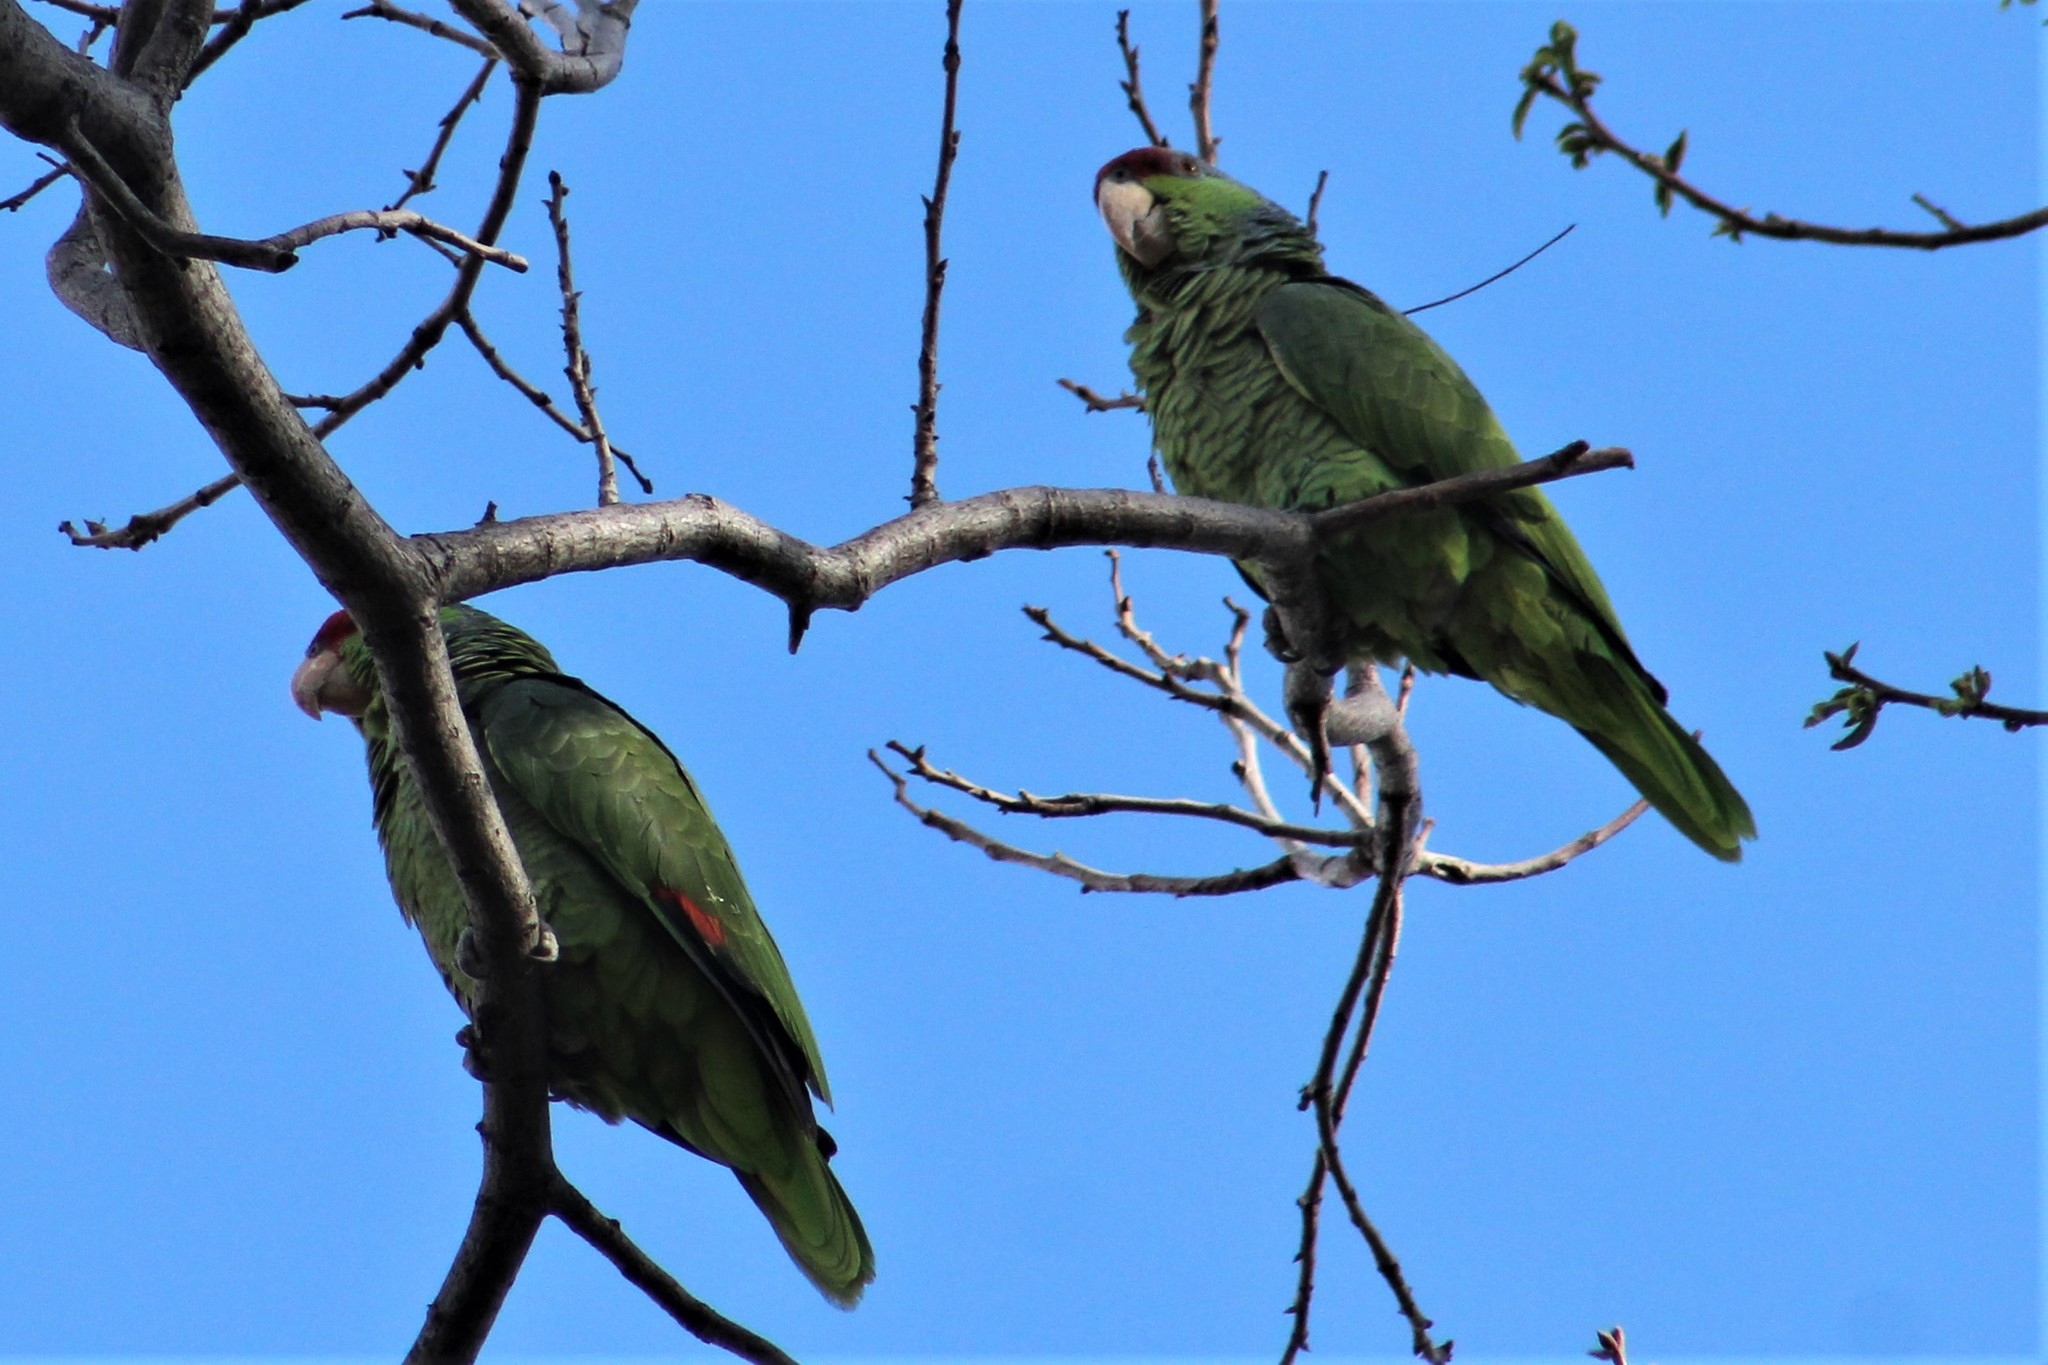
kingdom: Animalia
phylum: Chordata
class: Aves
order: Psittaciformes
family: Psittacidae
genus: Amazona
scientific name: Amazona finschi
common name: Lilac-crowned amazon
